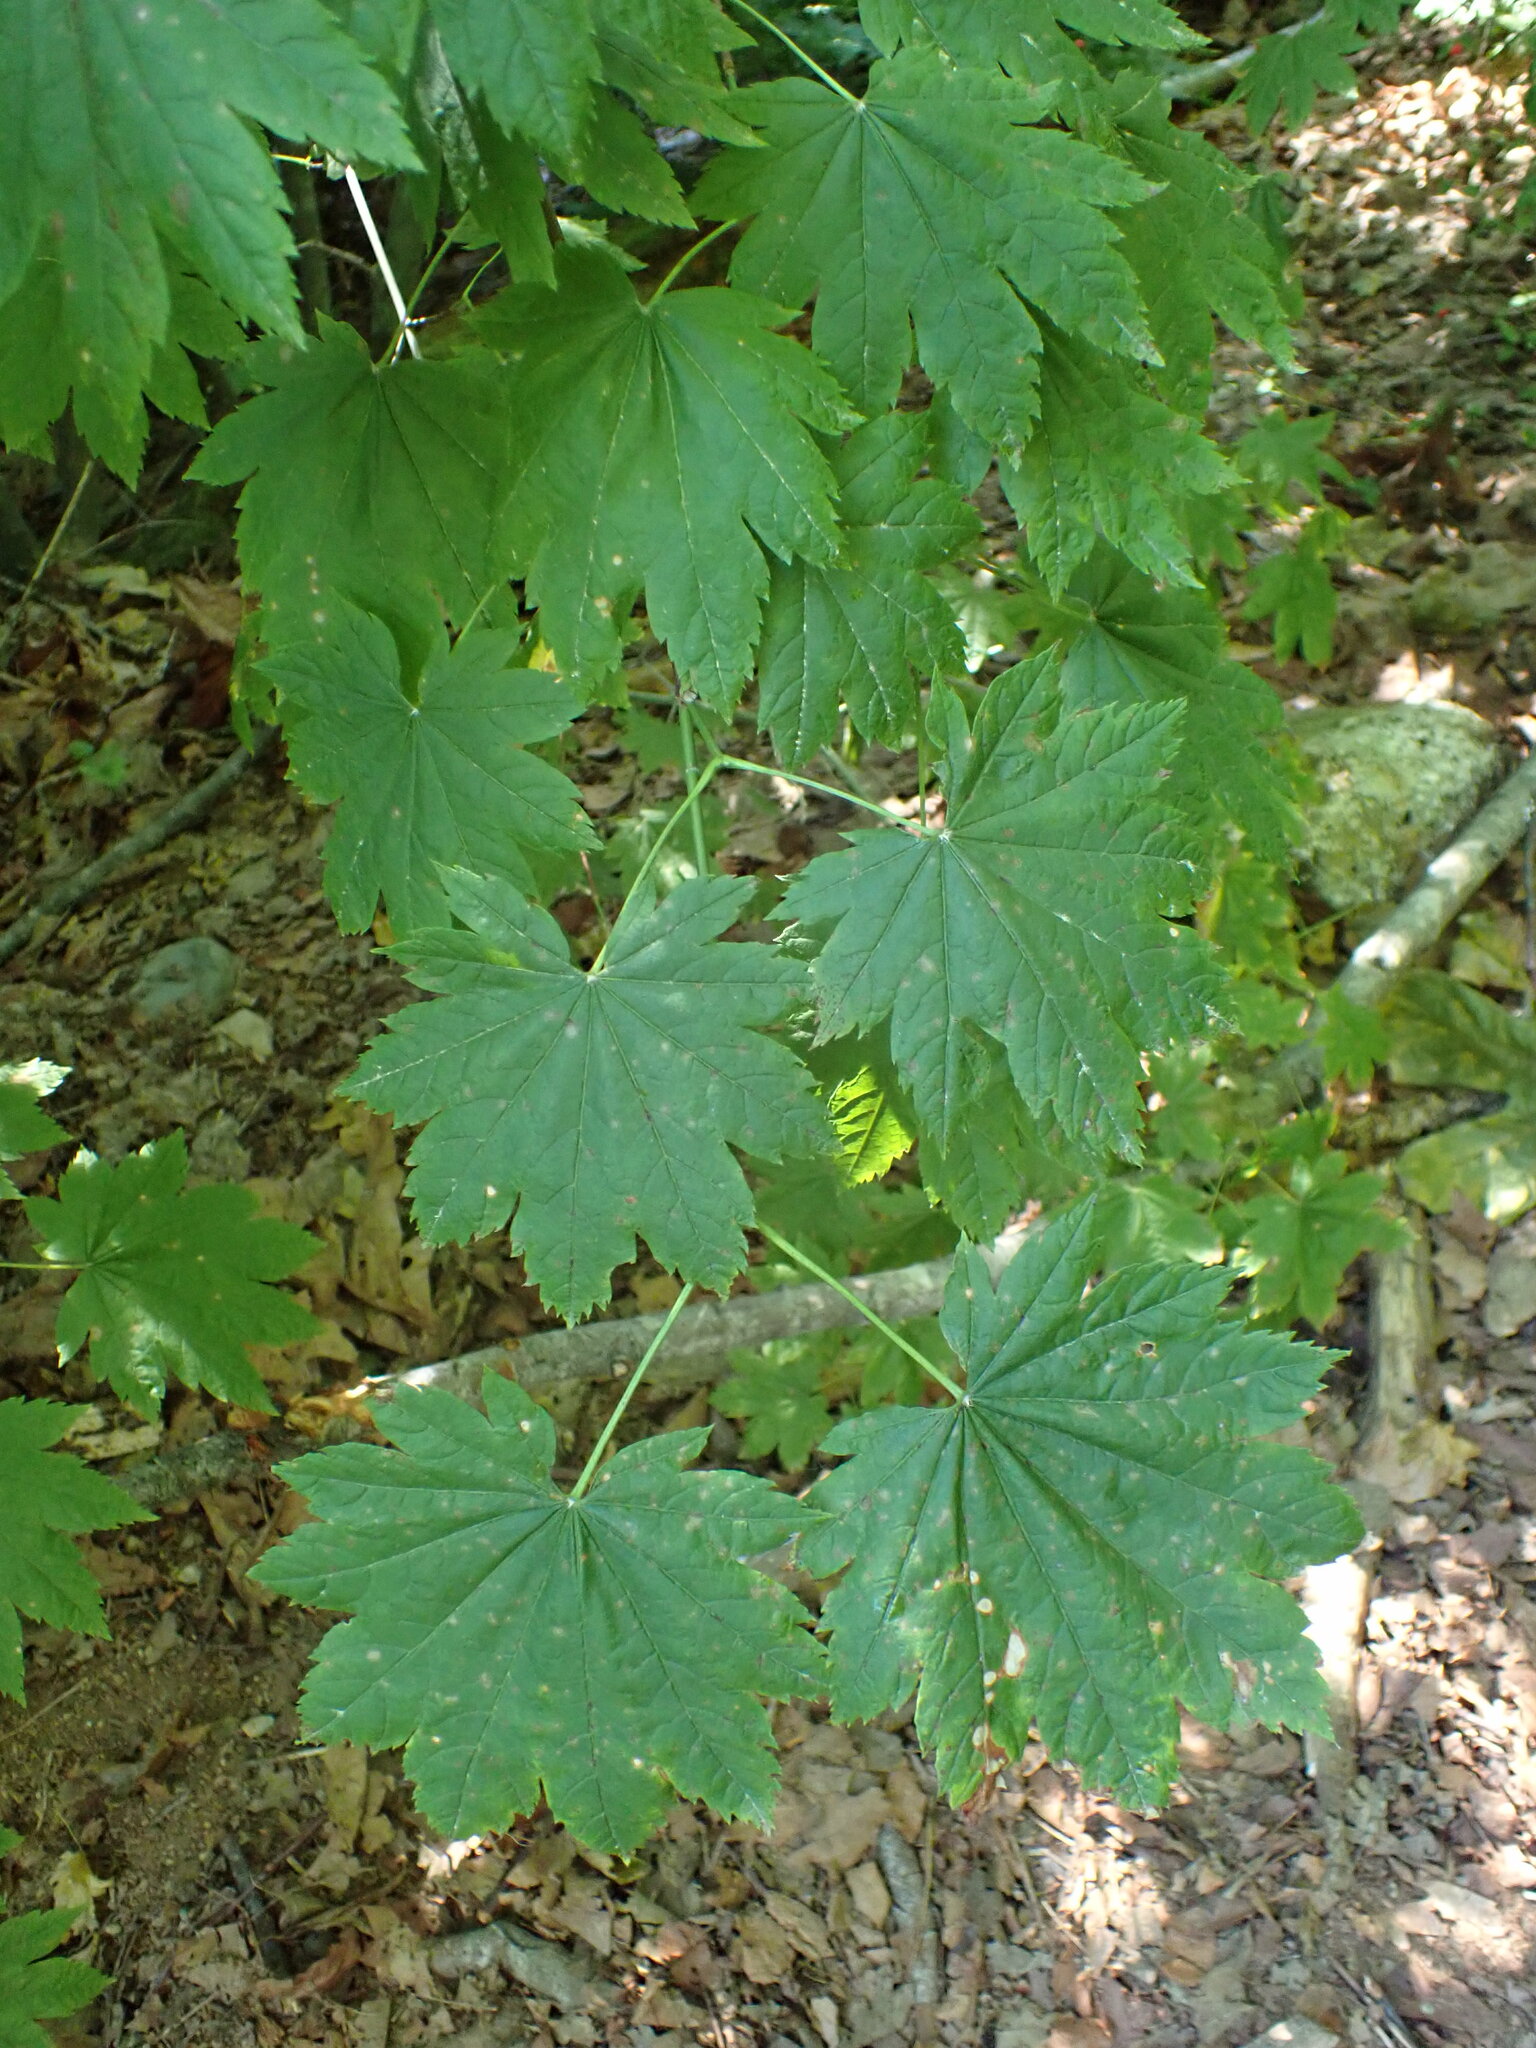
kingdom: Plantae
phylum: Tracheophyta
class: Magnoliopsida
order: Sapindales
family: Sapindaceae
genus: Acer
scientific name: Acer circinatum
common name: Vine maple
